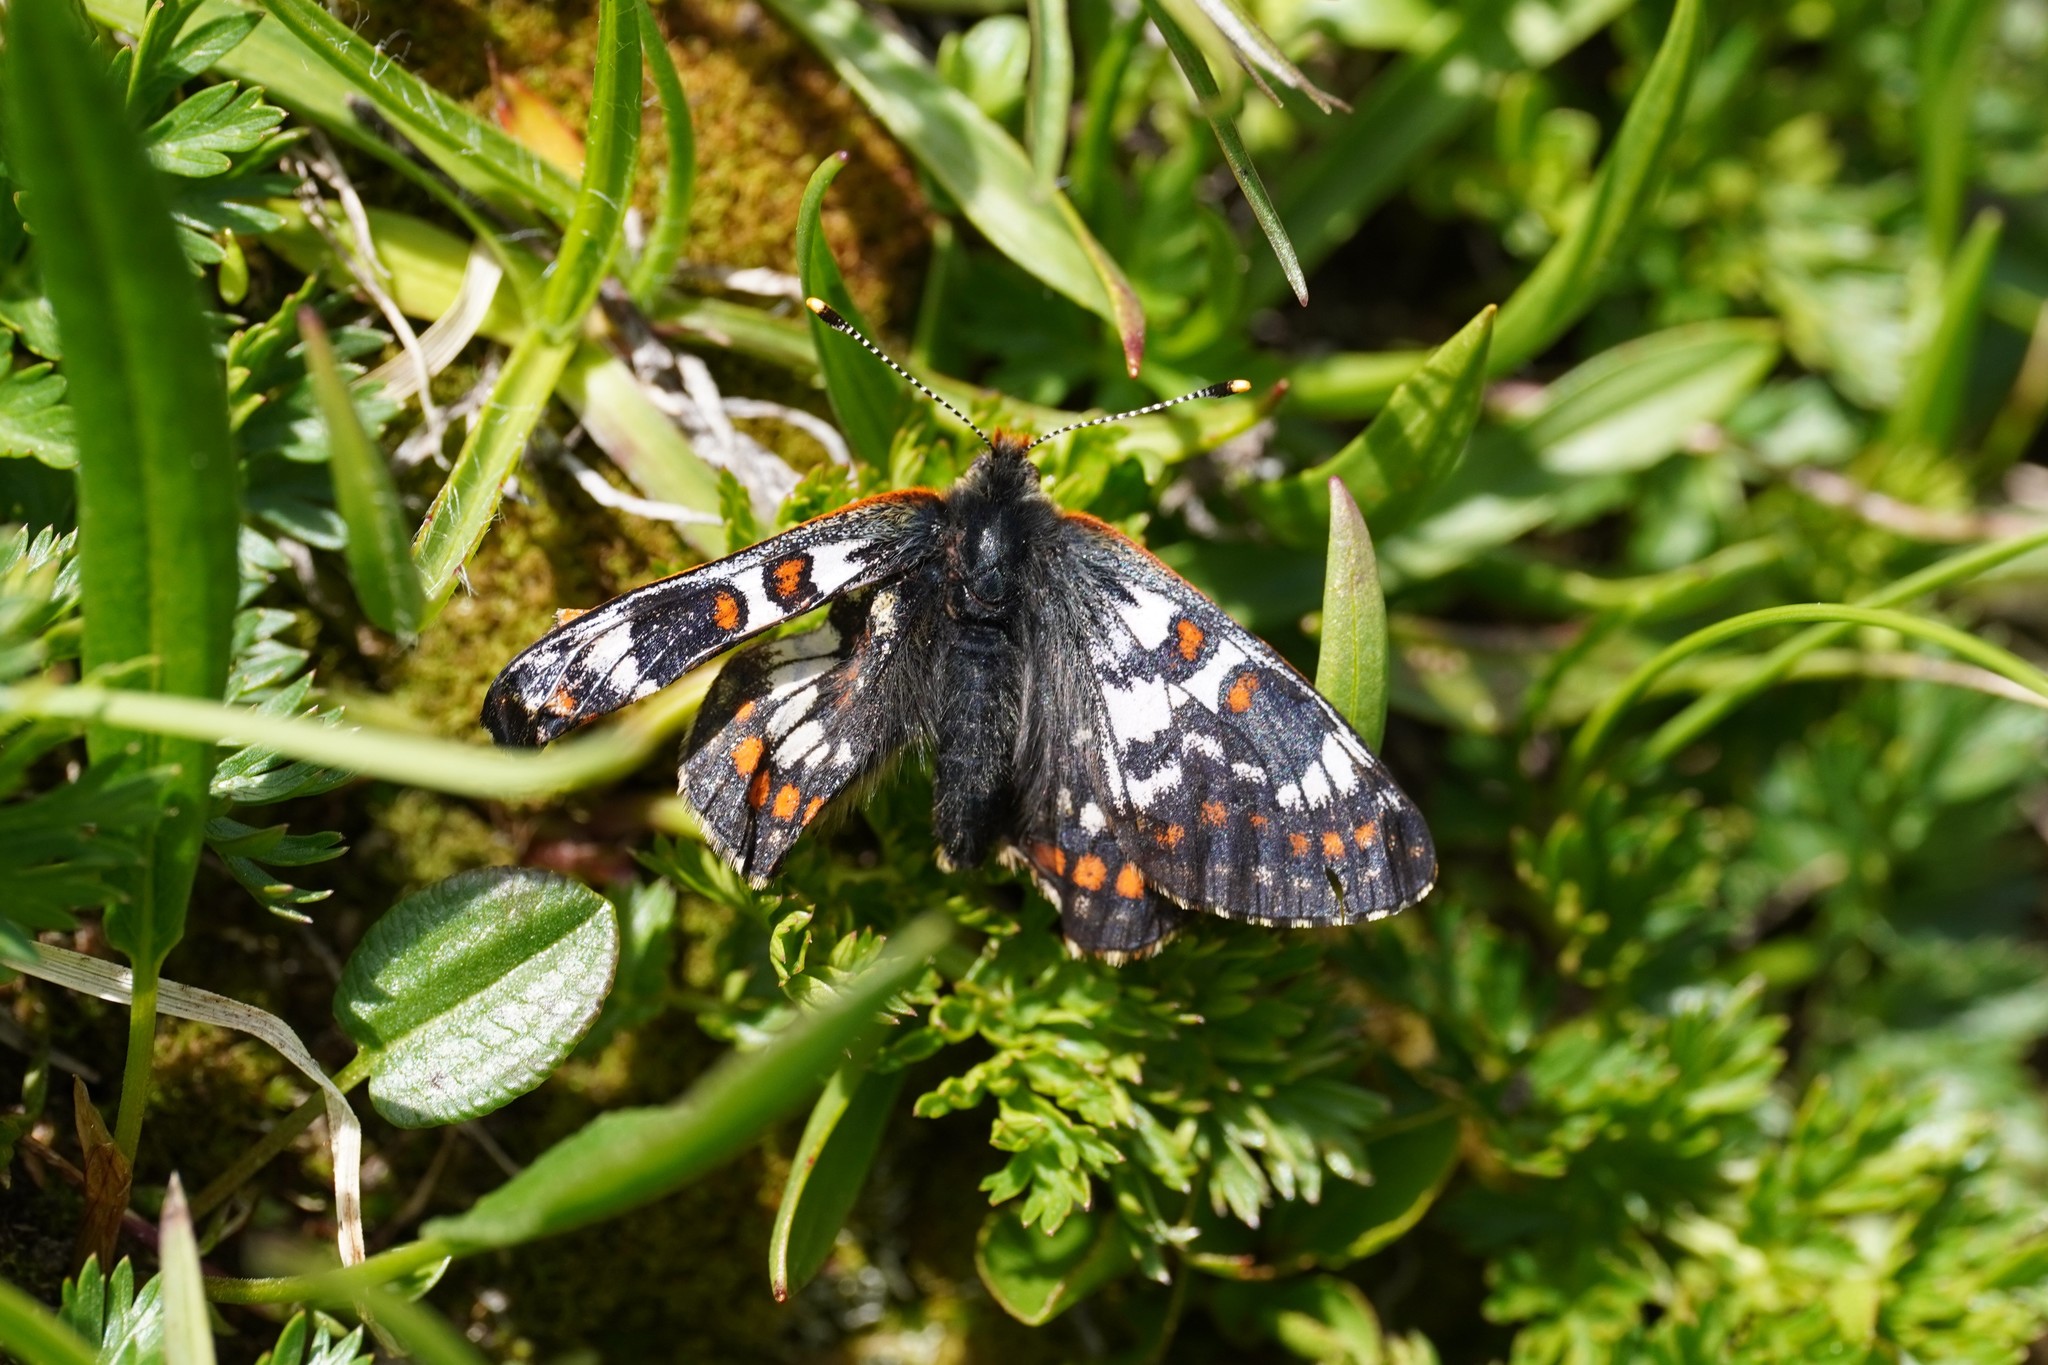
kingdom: Animalia
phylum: Arthropoda
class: Insecta
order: Lepidoptera
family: Nymphalidae
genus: Hypodryas
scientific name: Hypodryas cynthia
